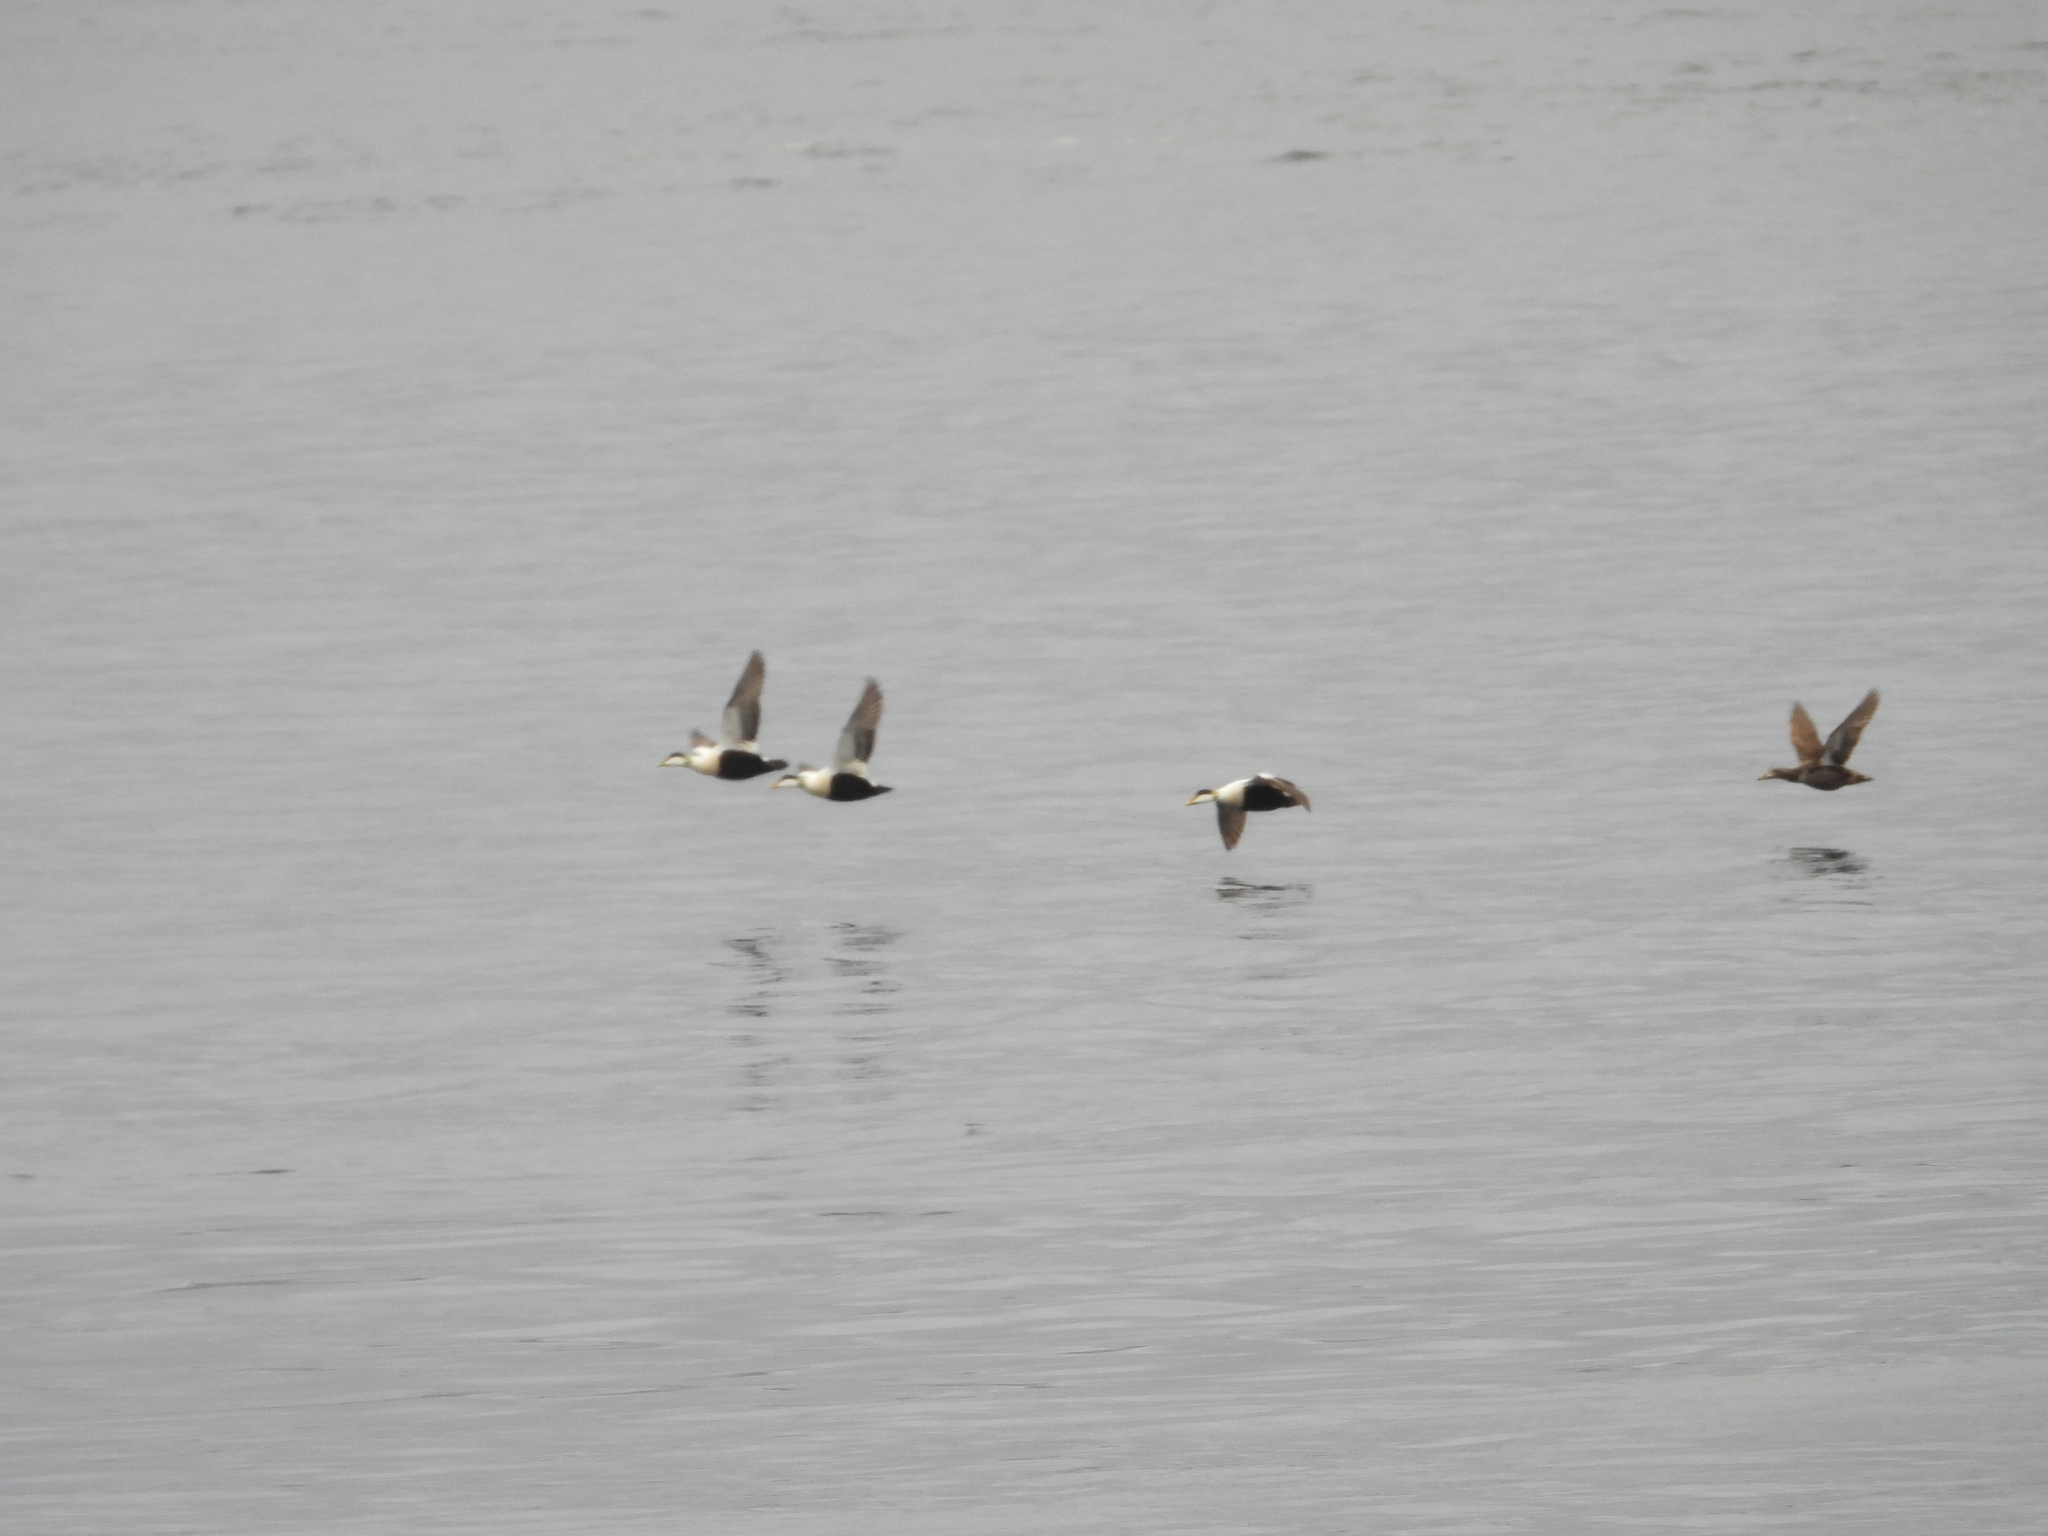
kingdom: Animalia
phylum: Chordata
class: Aves
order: Anseriformes
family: Anatidae
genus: Somateria
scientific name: Somateria mollissima
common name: Common eider
